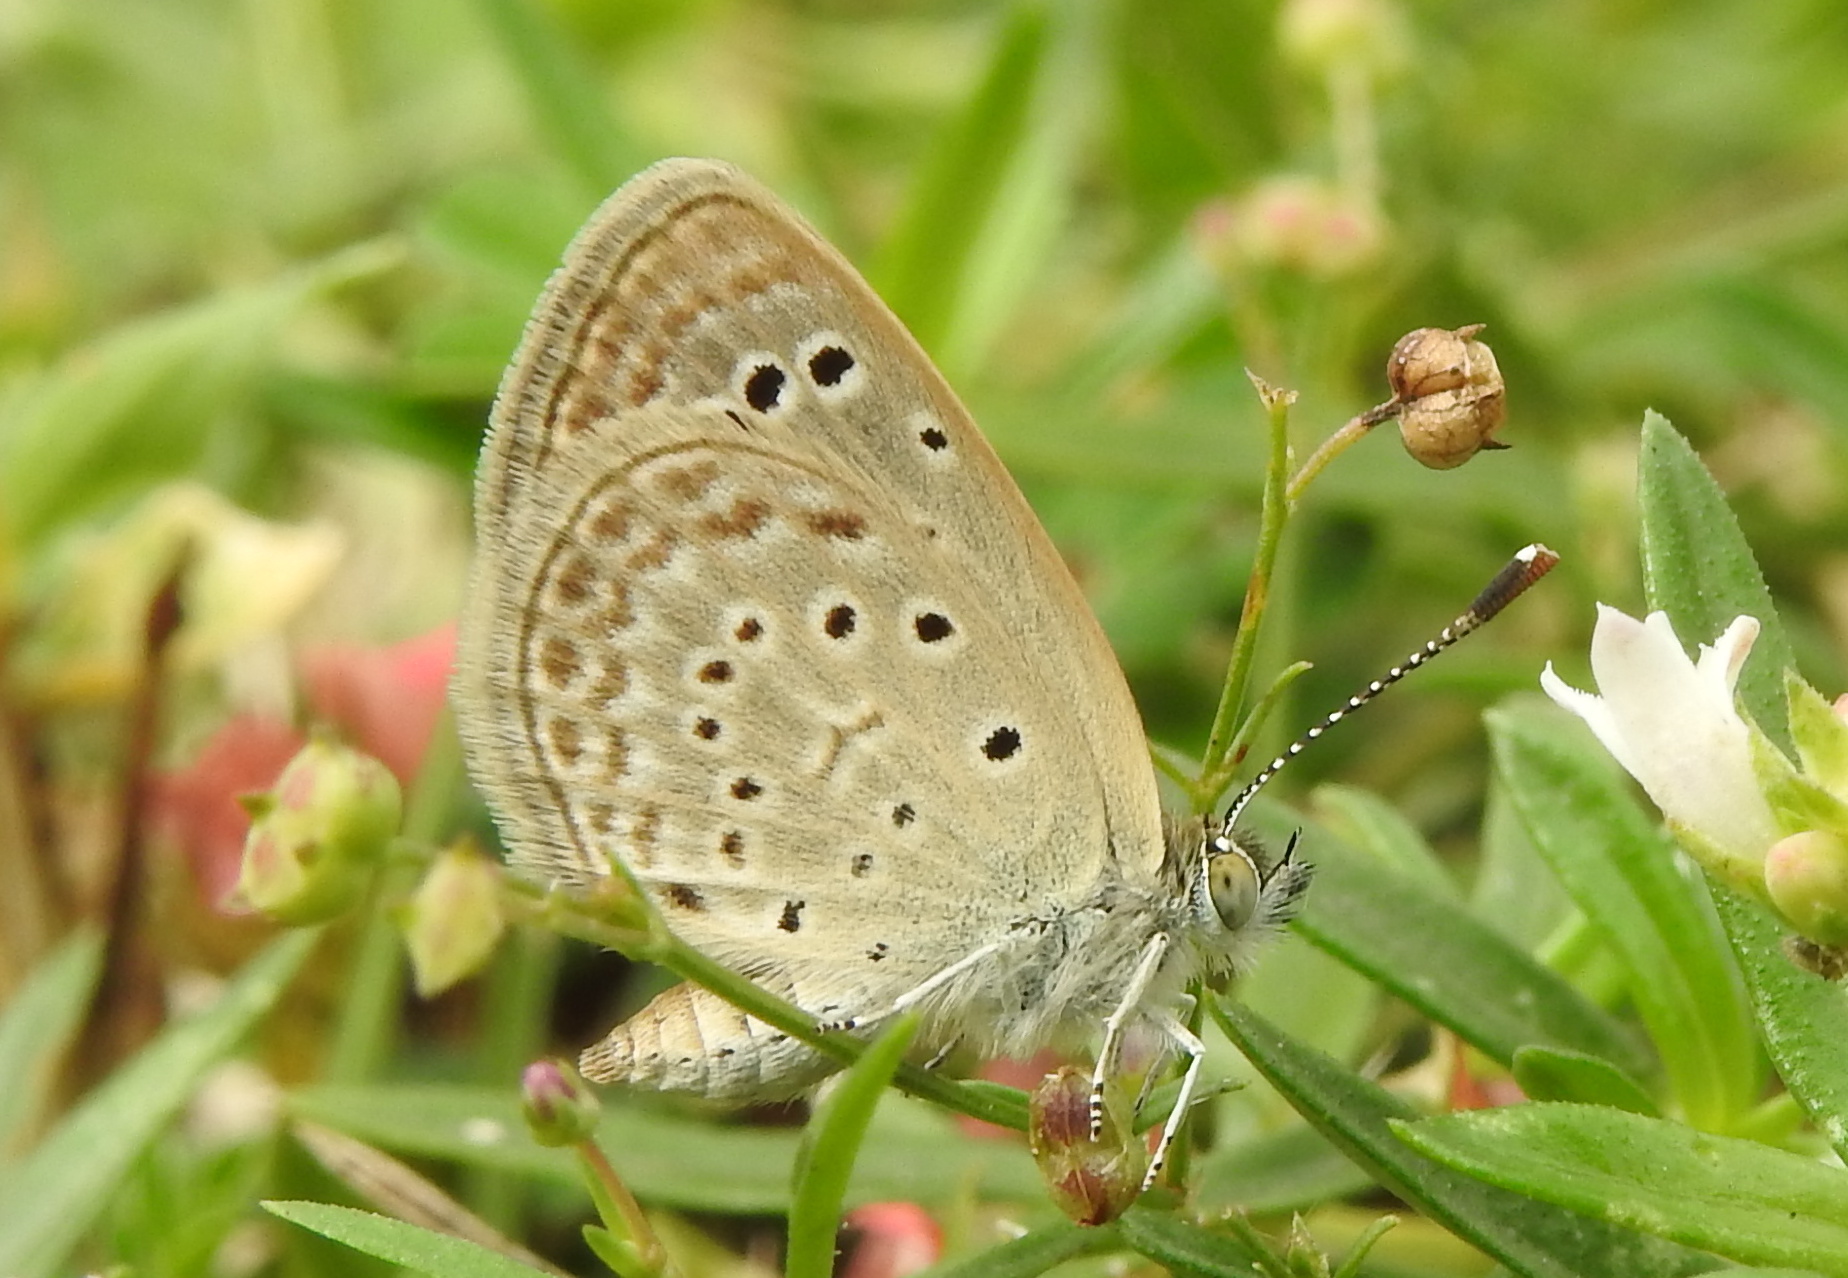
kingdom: Animalia
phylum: Arthropoda
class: Insecta
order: Lepidoptera
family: Lycaenidae
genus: Zizeeria
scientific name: Zizeeria karsandra
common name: Dark grass blue
